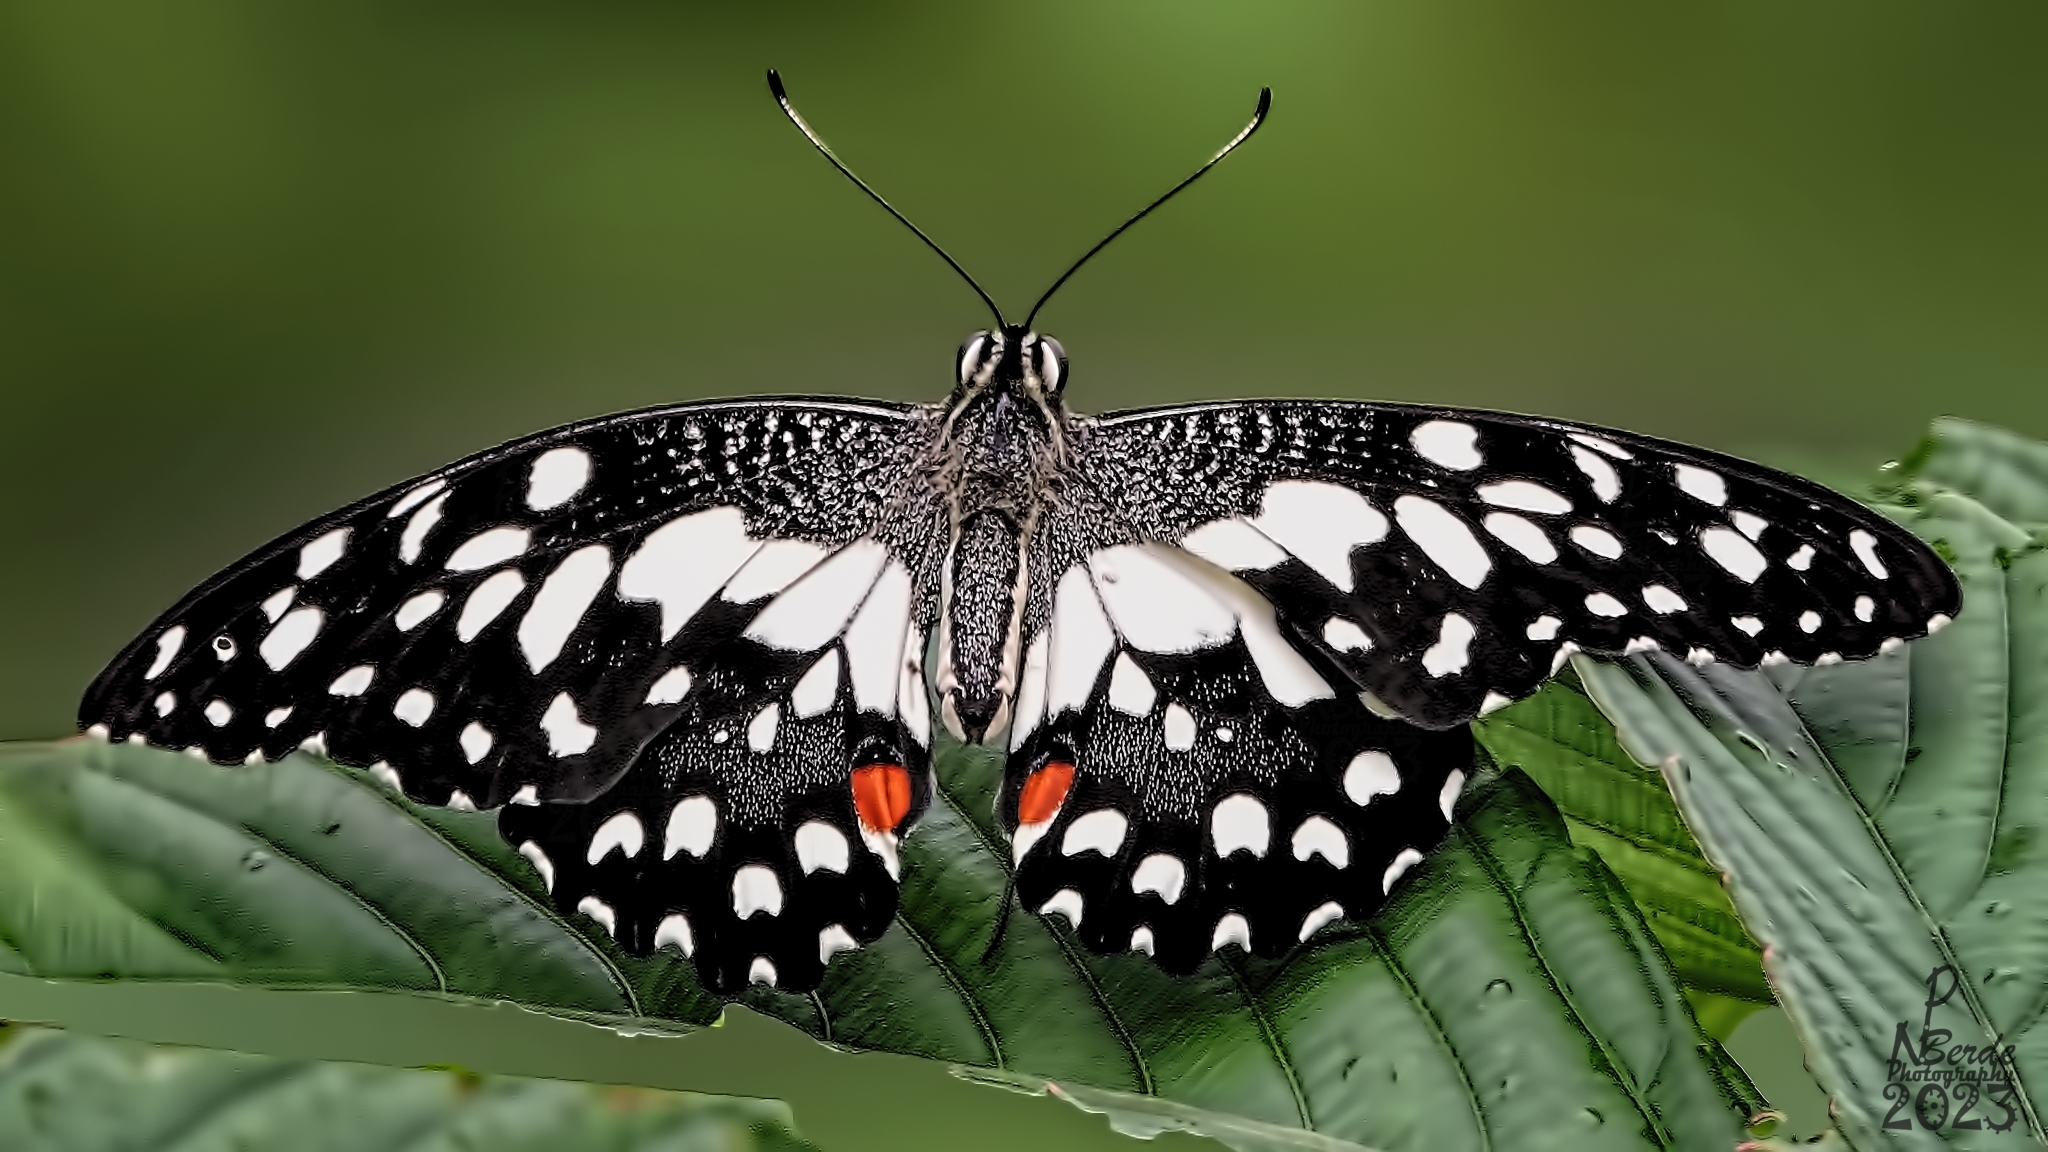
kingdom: Animalia
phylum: Arthropoda
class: Insecta
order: Lepidoptera
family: Papilionidae
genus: Papilio
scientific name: Papilio demoleus
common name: Lime butterfly
